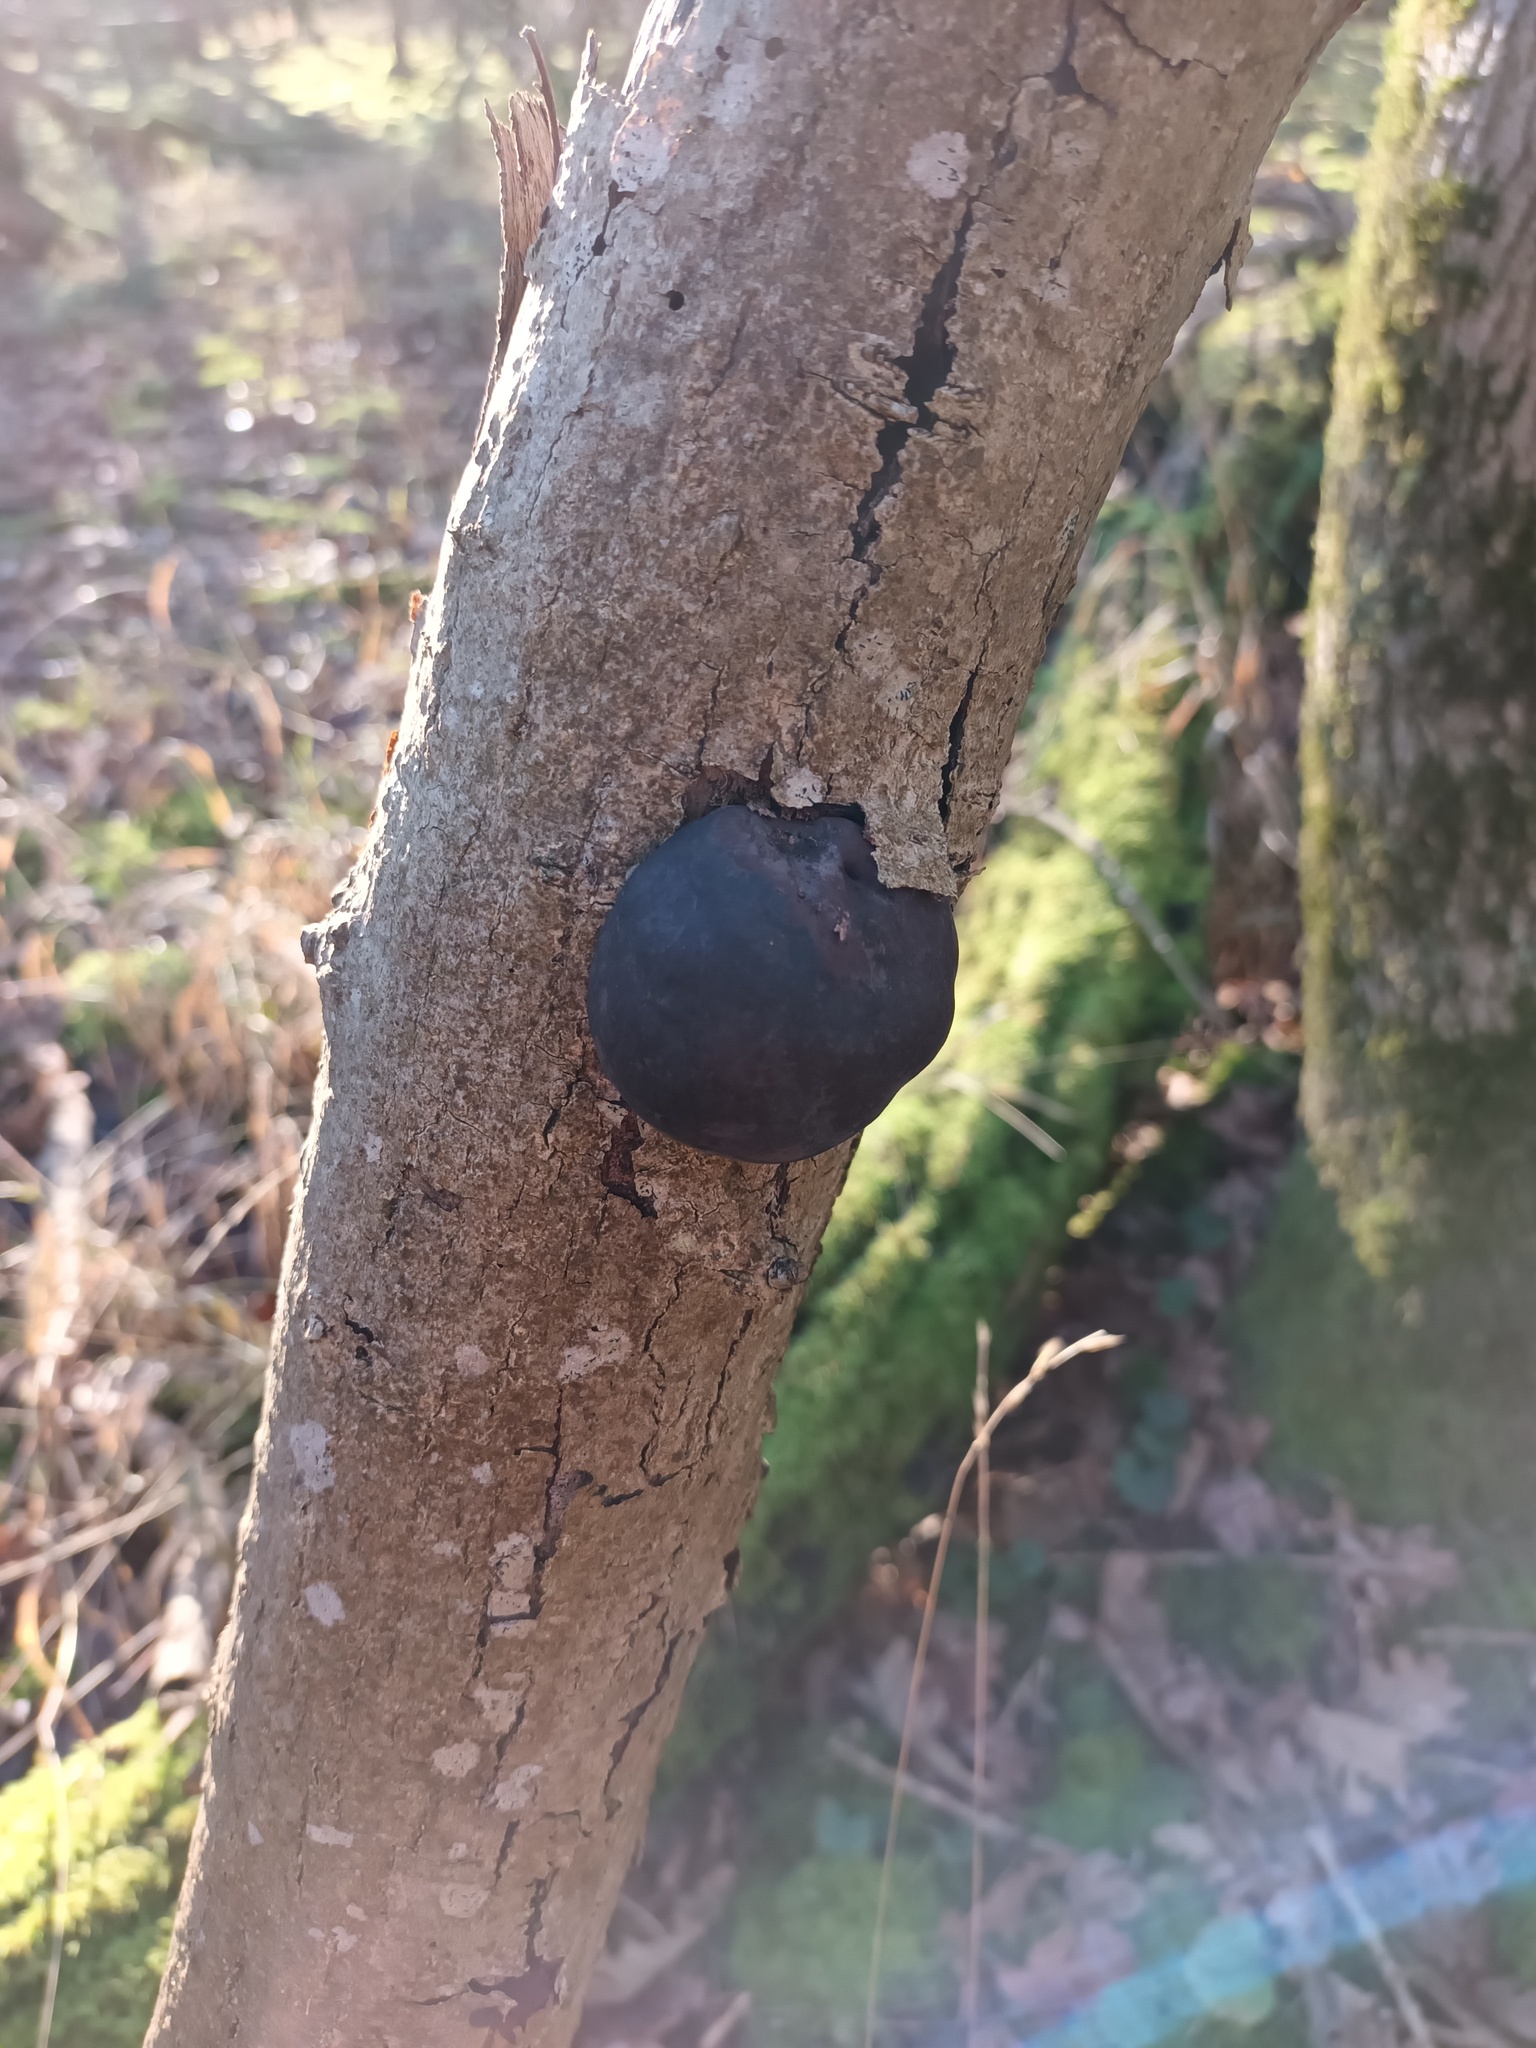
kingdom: Fungi
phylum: Ascomycota
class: Sordariomycetes
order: Xylariales
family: Hypoxylaceae
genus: Daldinia
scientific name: Daldinia concentrica
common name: Cramp balls
